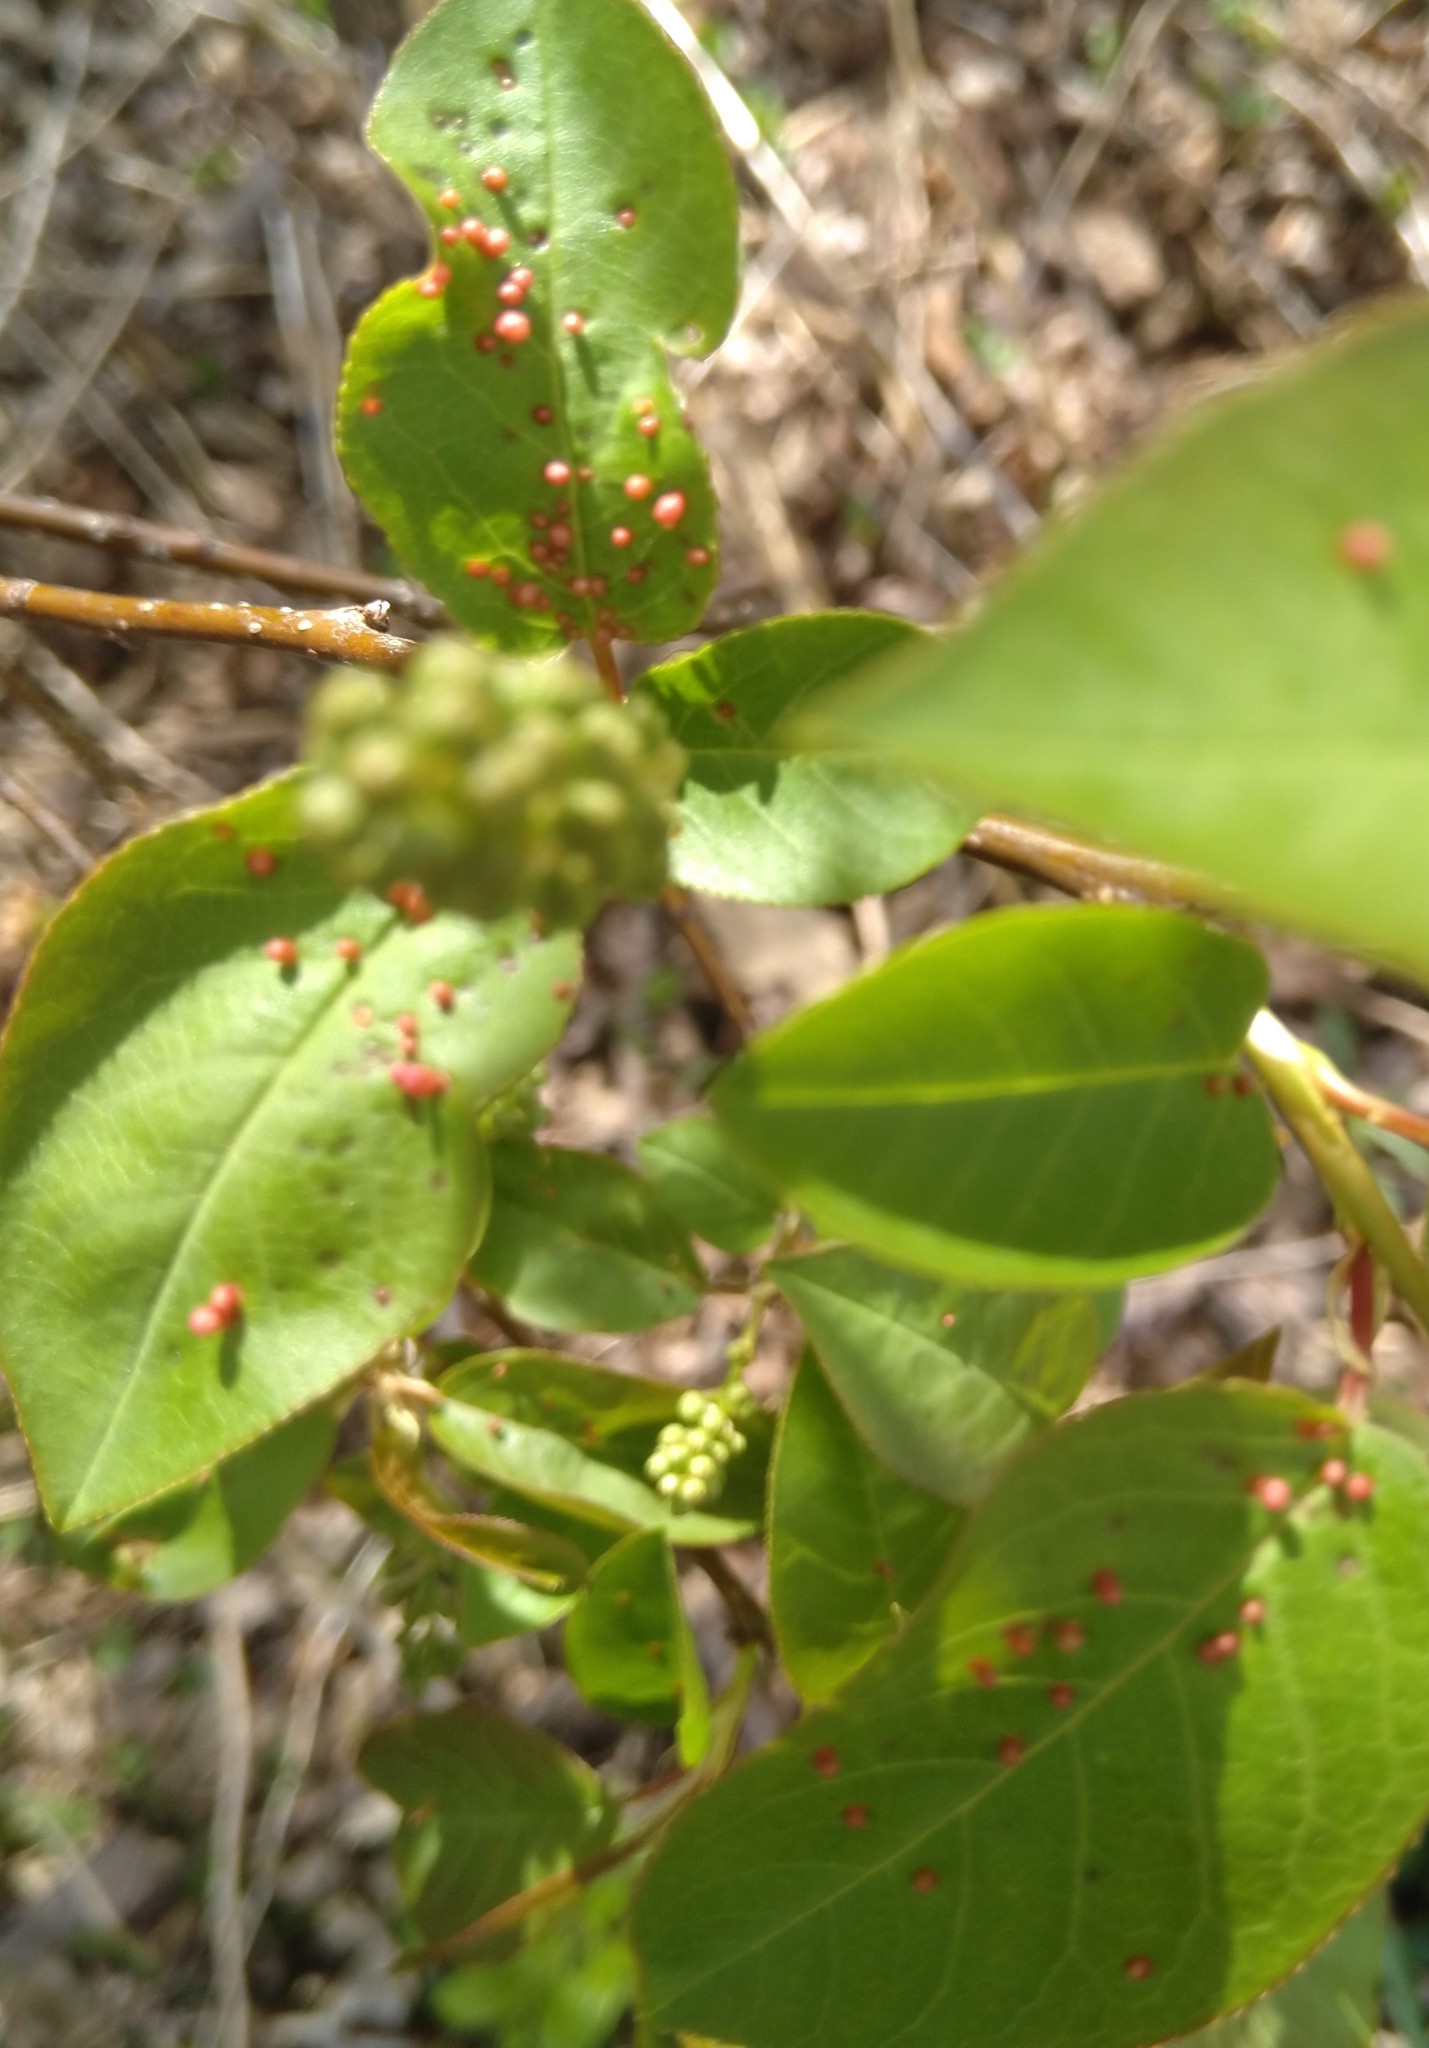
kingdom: Animalia
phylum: Arthropoda
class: Arachnida
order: Trombidiformes
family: Eriophyidae
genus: Eriophyes
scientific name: Eriophyes emarginatae
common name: Plum leaf gall mite
